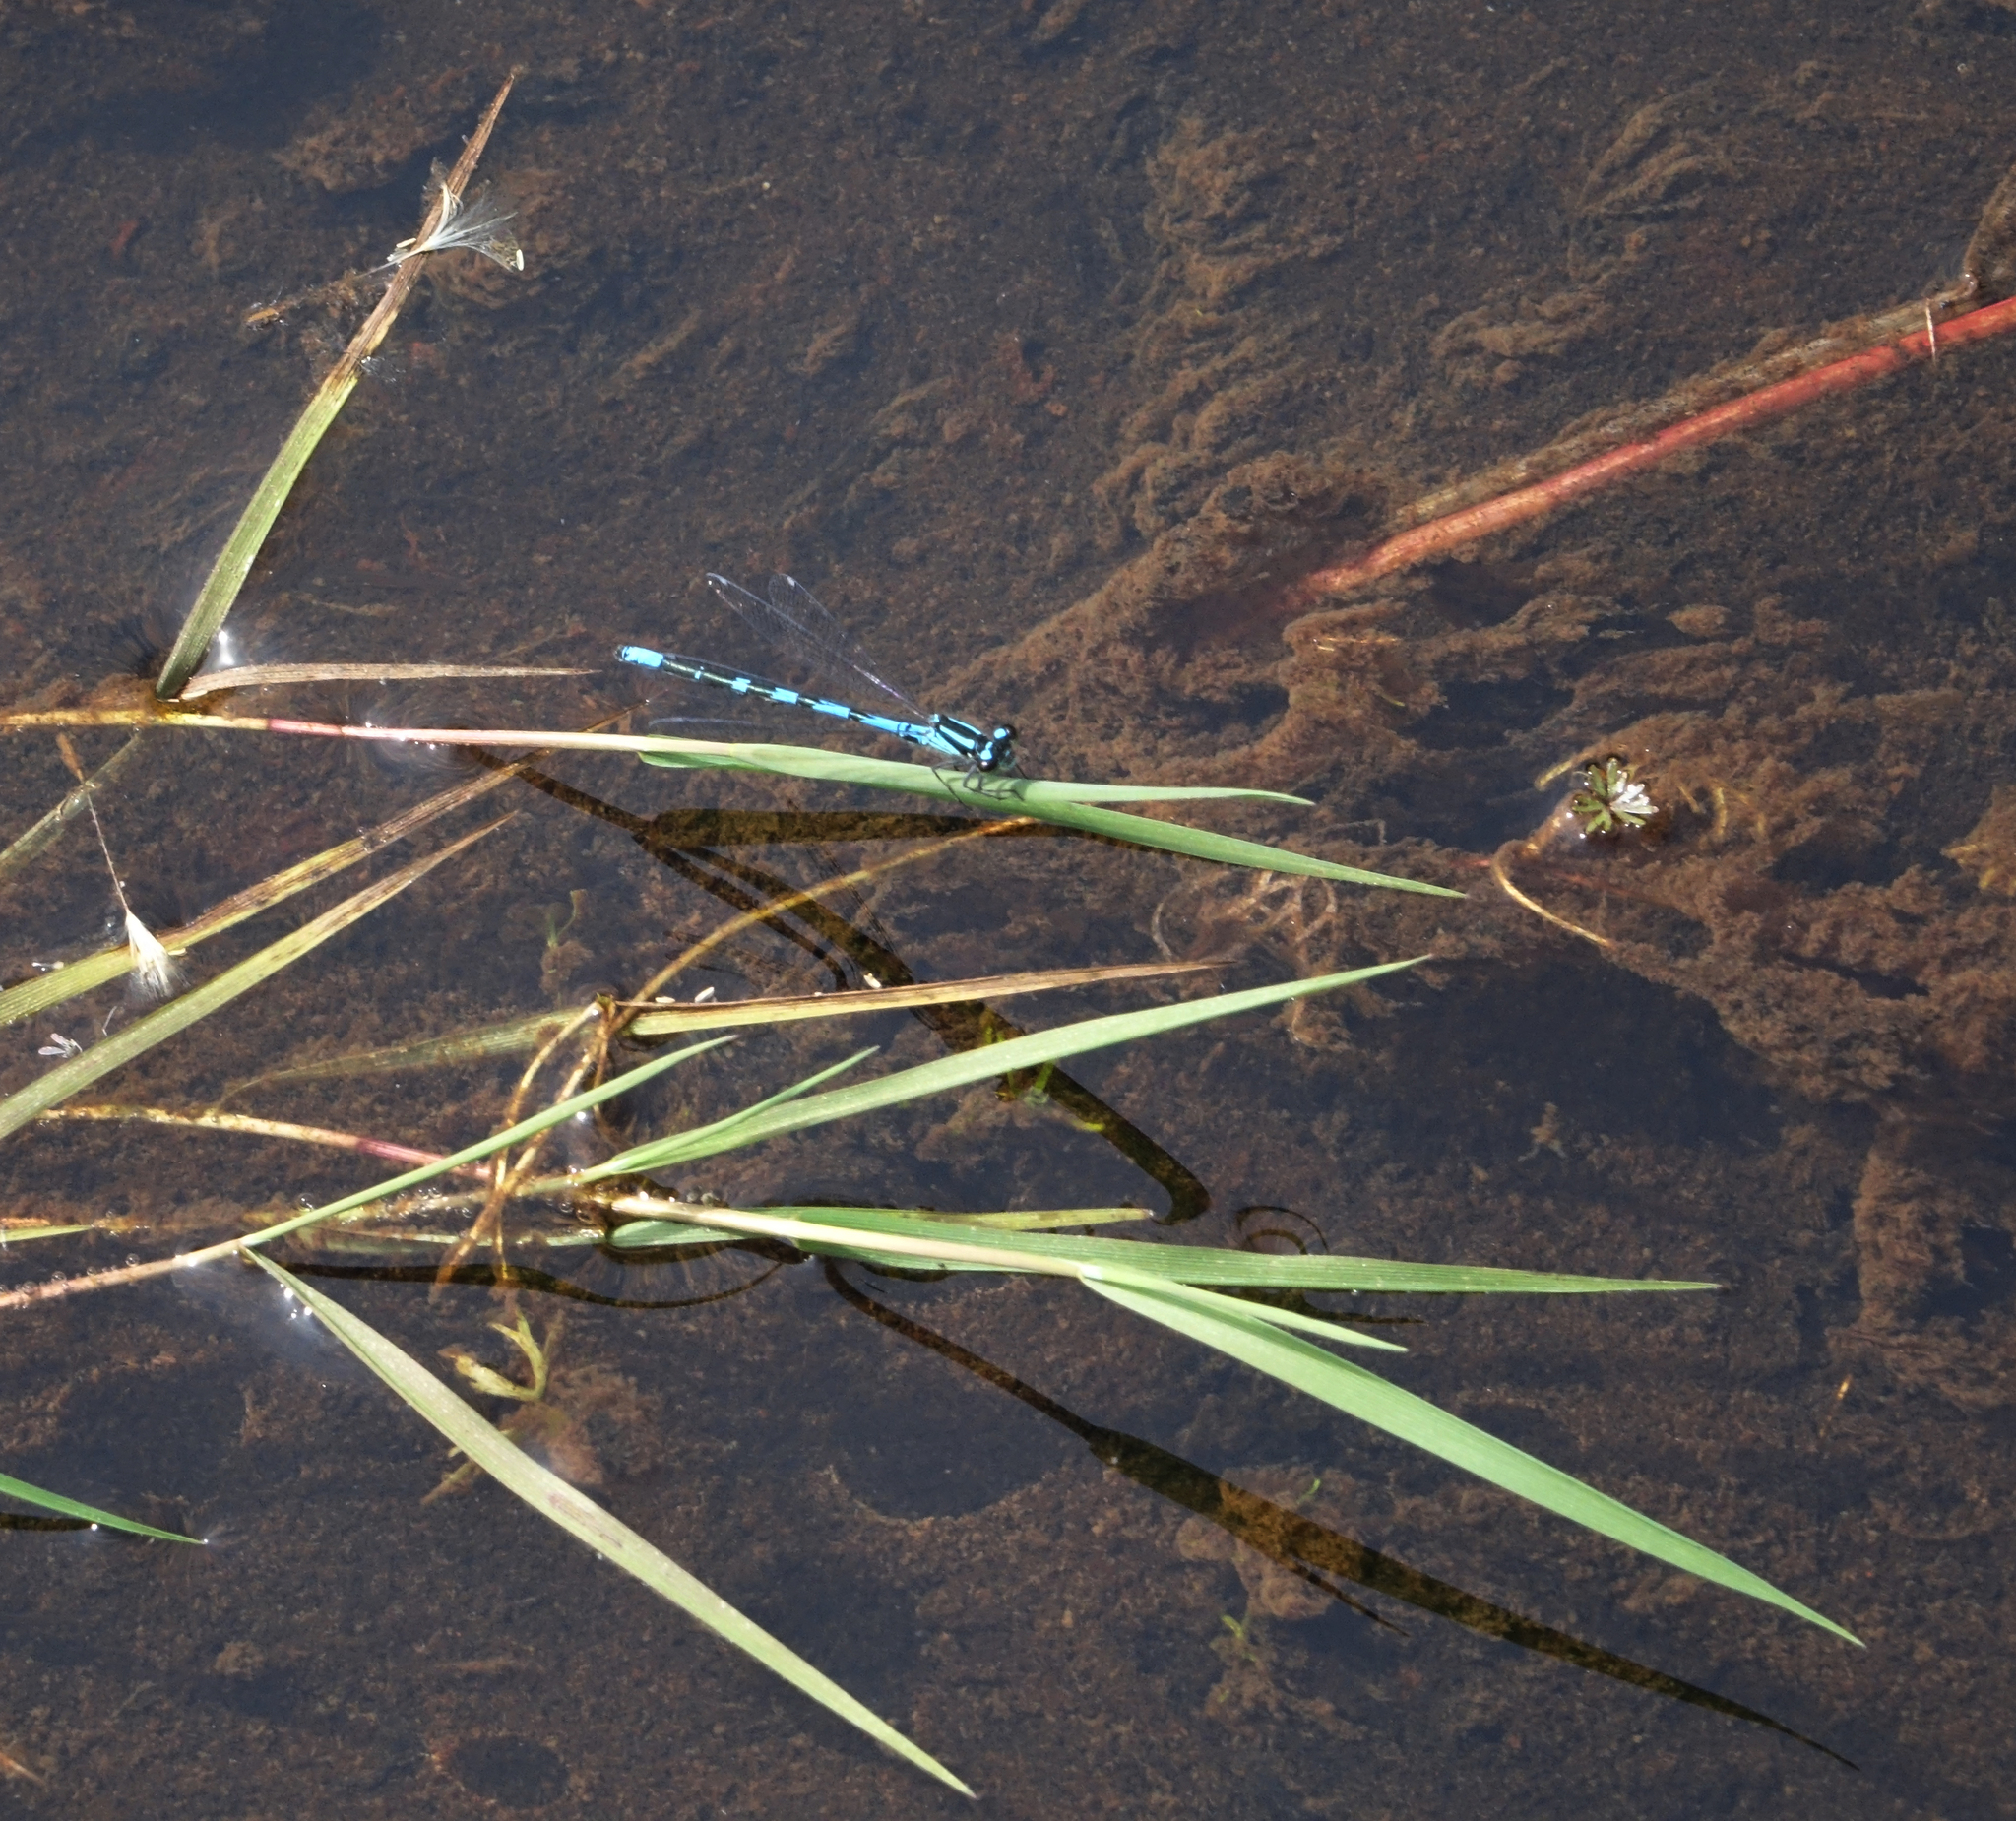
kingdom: Animalia
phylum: Arthropoda
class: Insecta
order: Odonata
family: Coenagrionidae
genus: Coenagrion
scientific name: Coenagrion hylas
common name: Frey's damselfly
